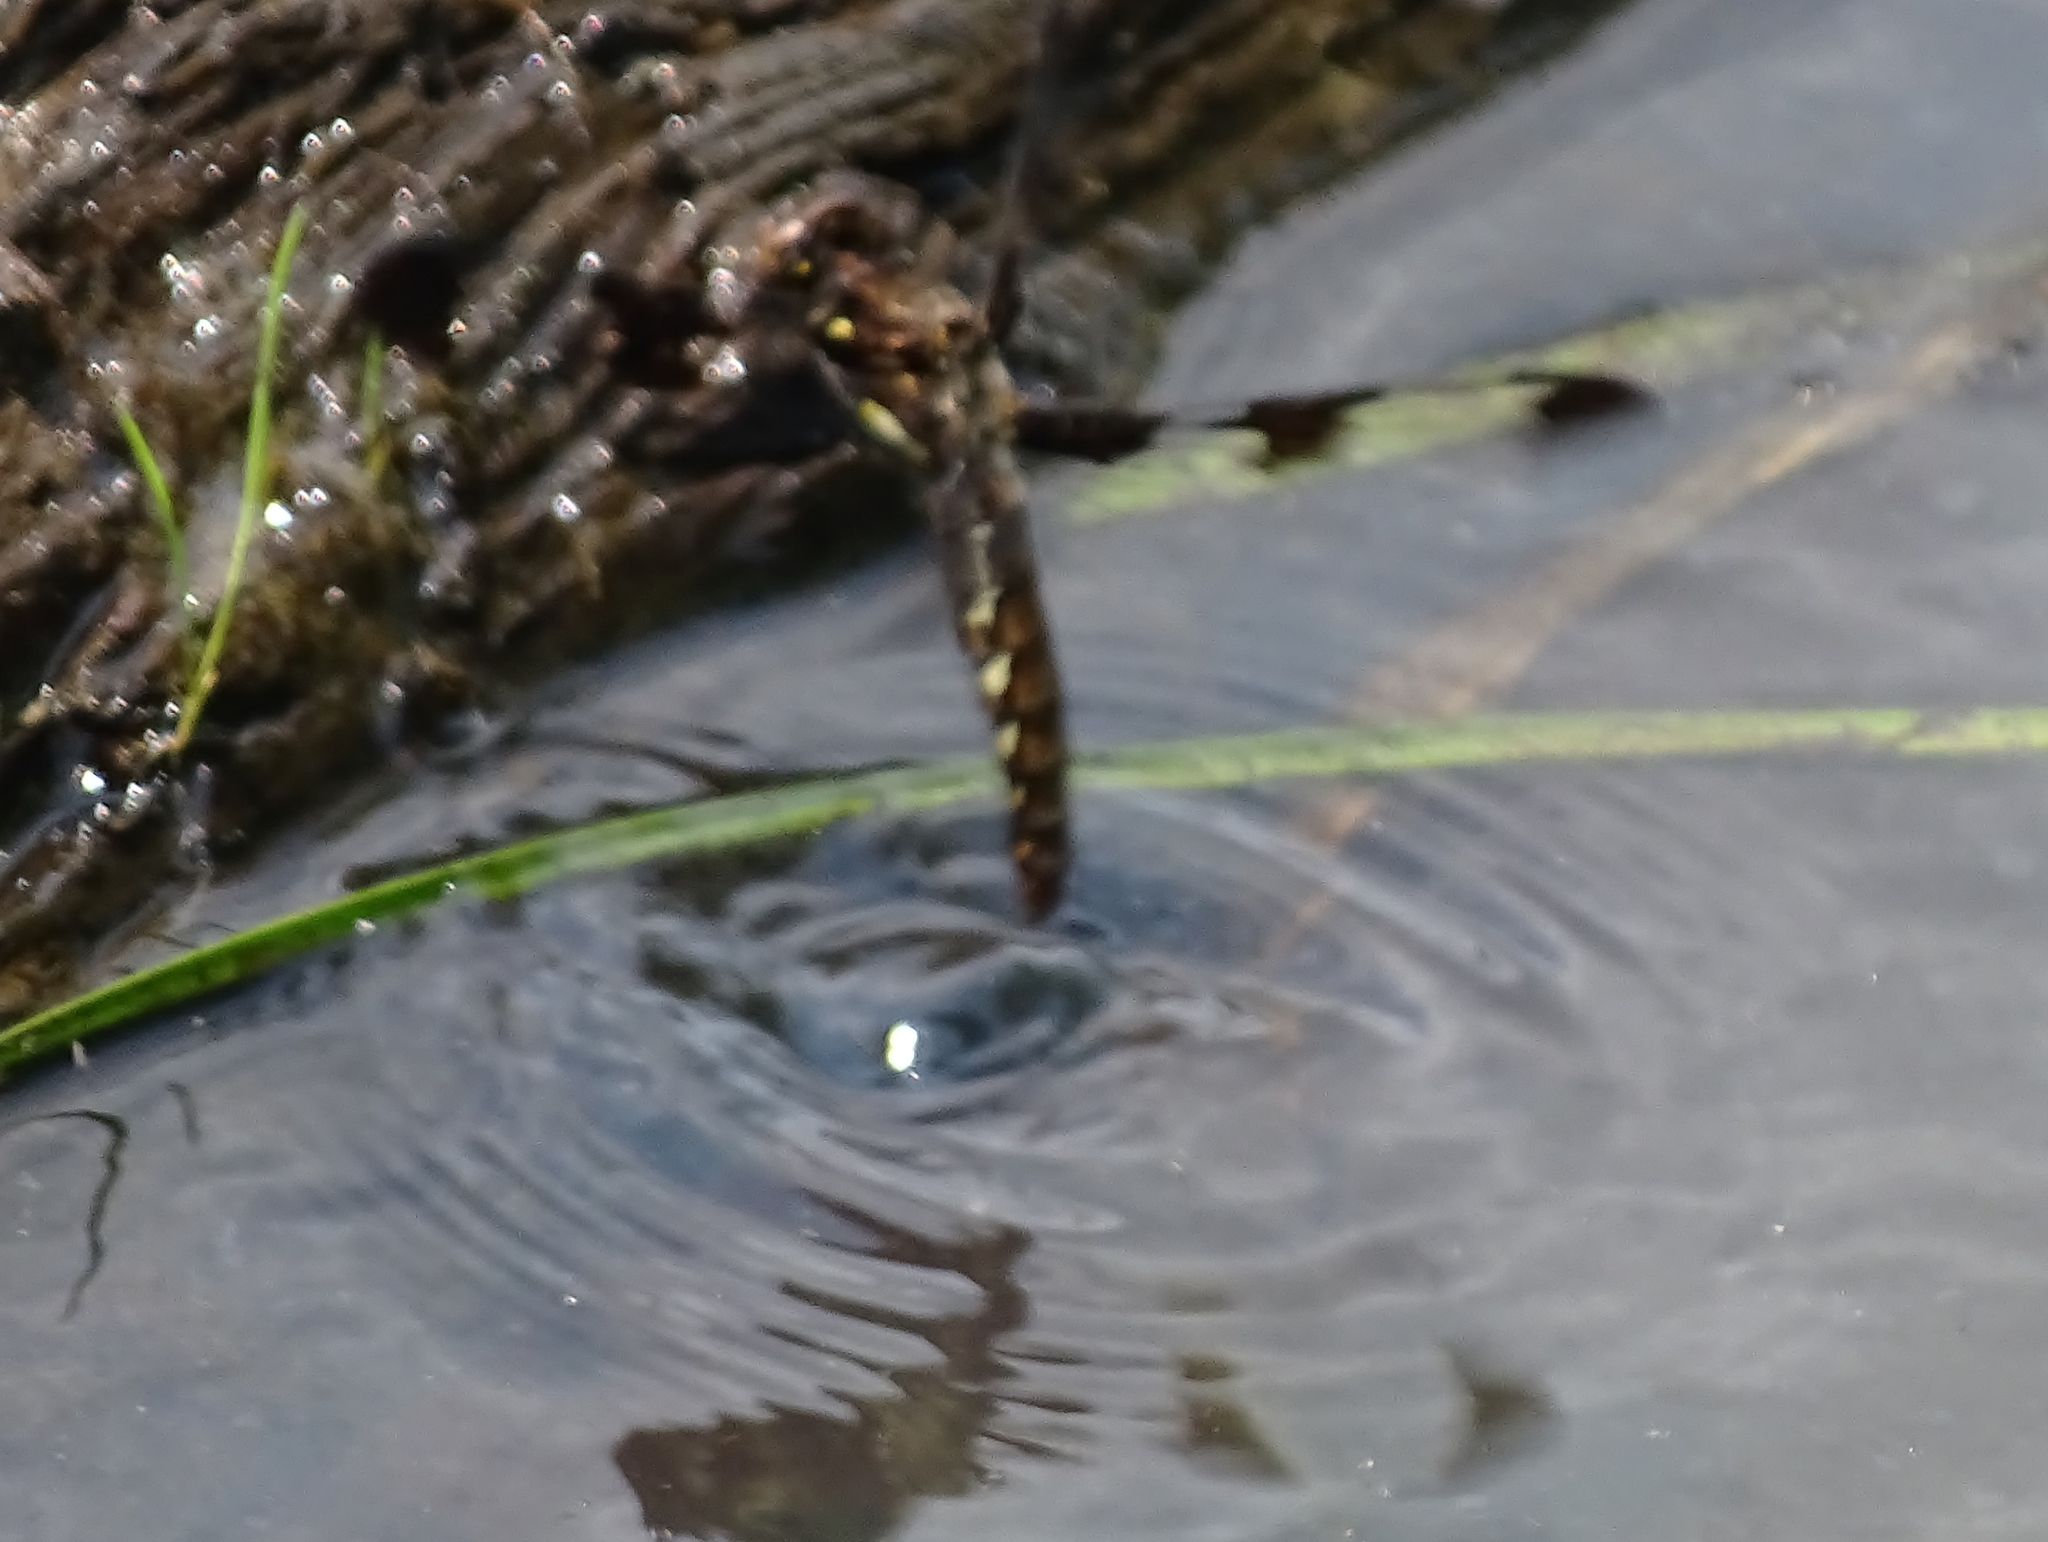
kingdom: Animalia
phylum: Arthropoda
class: Insecta
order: Odonata
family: Libellulidae
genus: Plathemis
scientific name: Plathemis lydia
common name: Common whitetail
